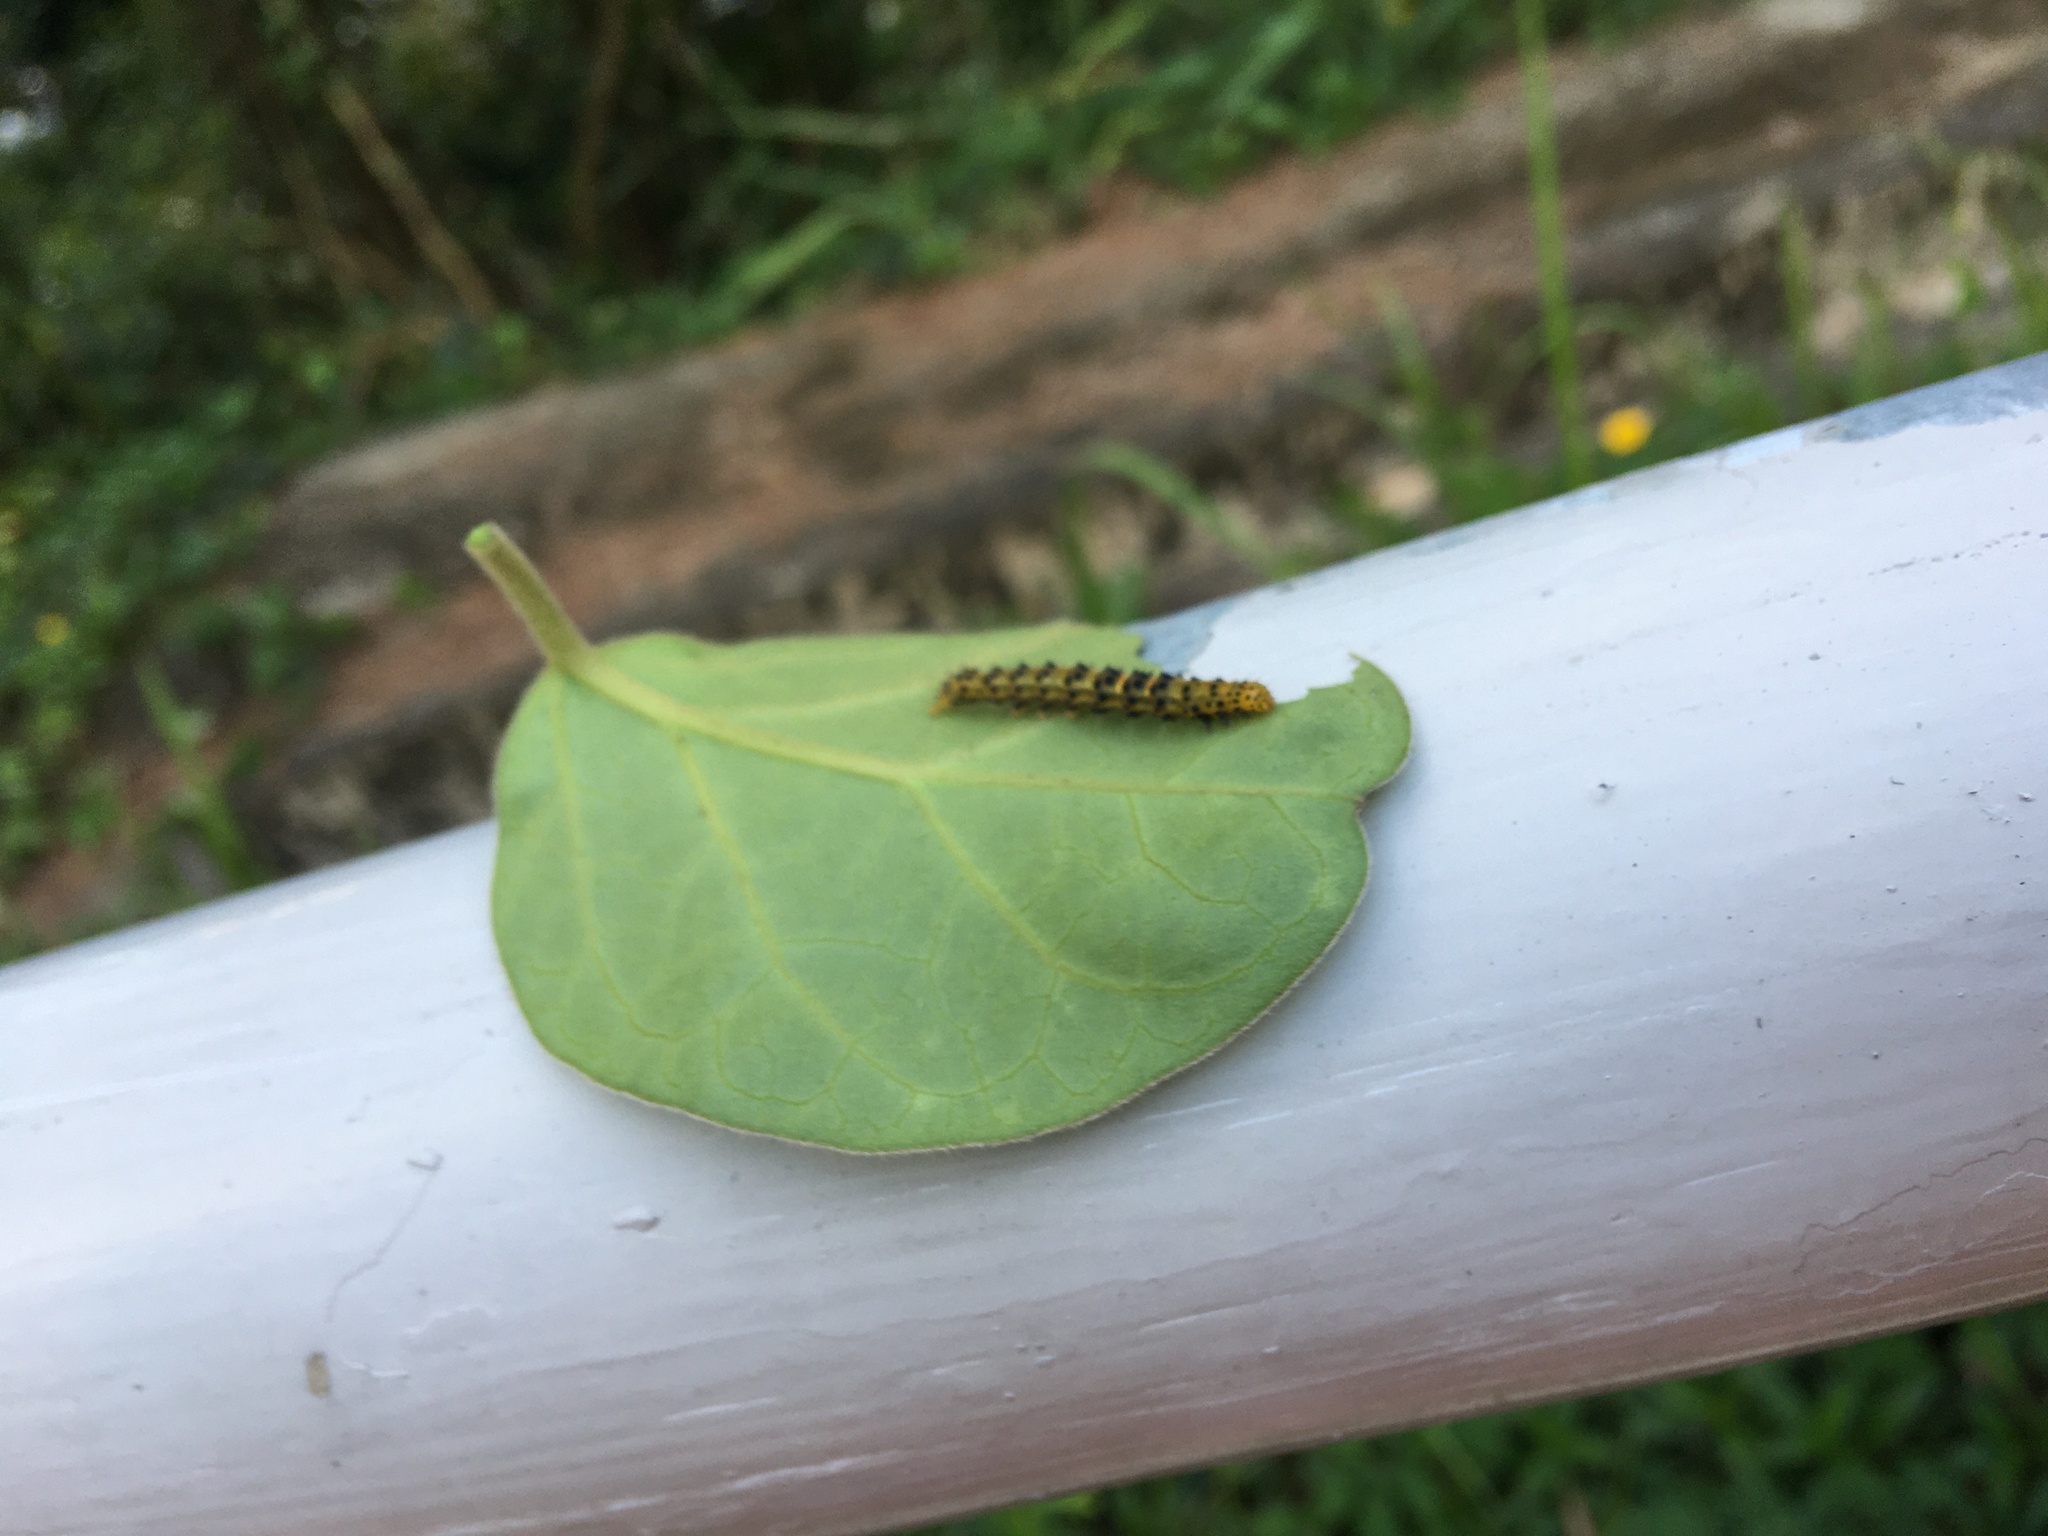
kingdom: Animalia
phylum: Arthropoda
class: Insecta
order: Lepidoptera
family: Erebidae
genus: Hypena
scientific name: Hypena Dichromia sagitta
